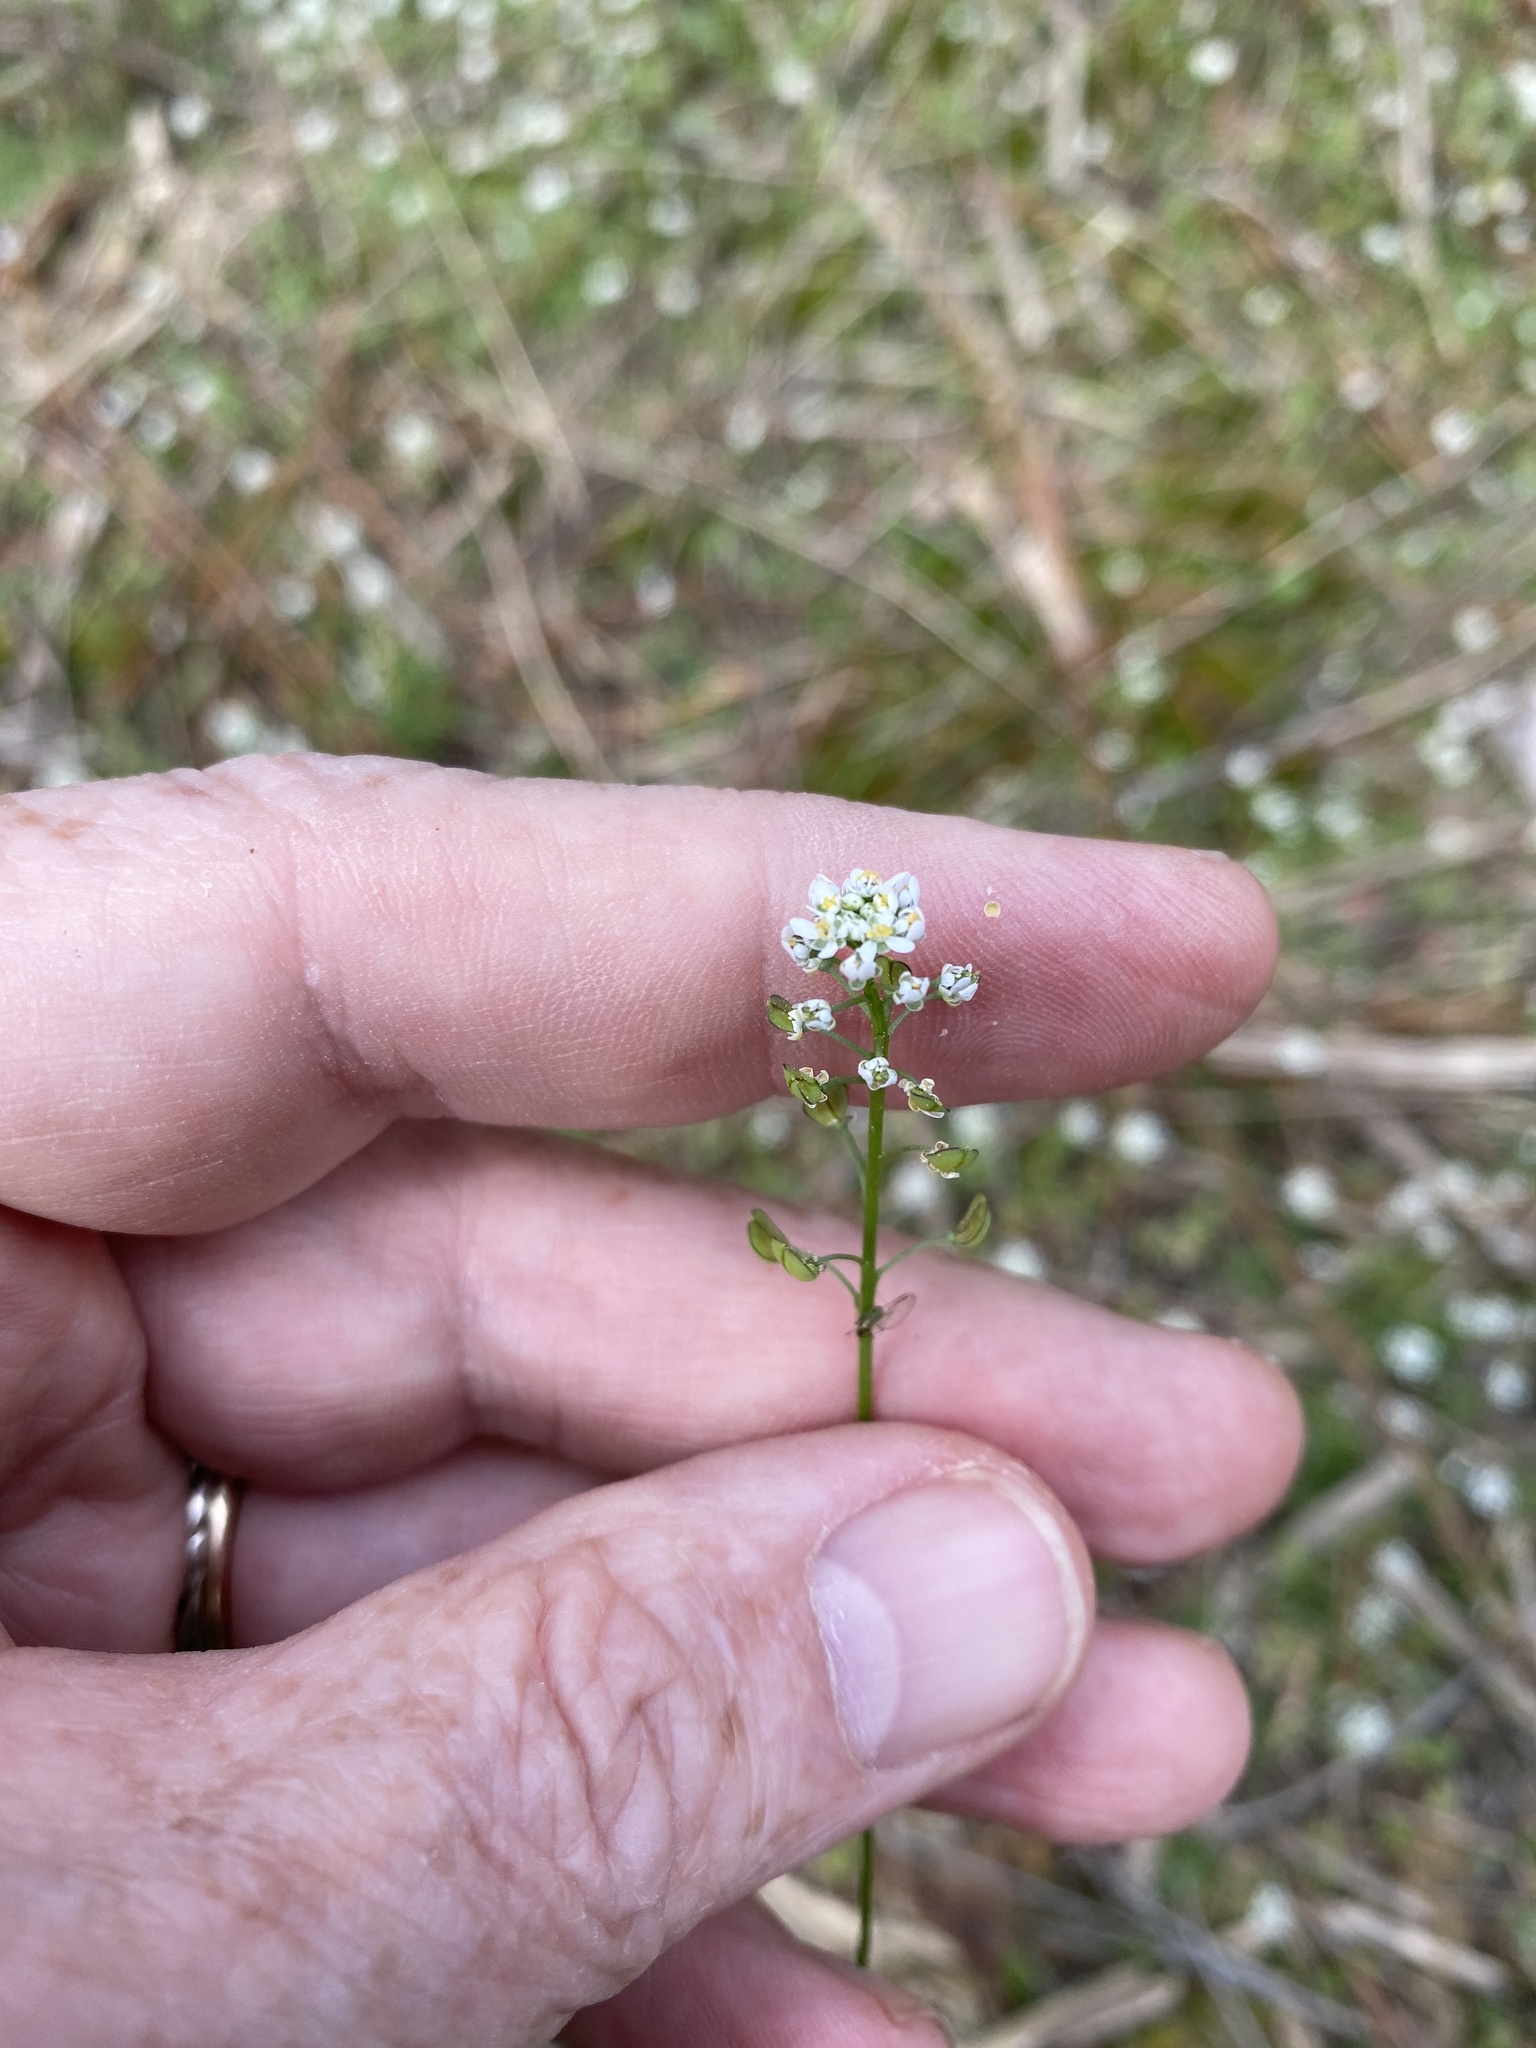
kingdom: Plantae
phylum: Tracheophyta
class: Magnoliopsida
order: Brassicales
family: Brassicaceae
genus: Teesdalia
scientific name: Teesdalia nudicaulis
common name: Shepherd's cress
